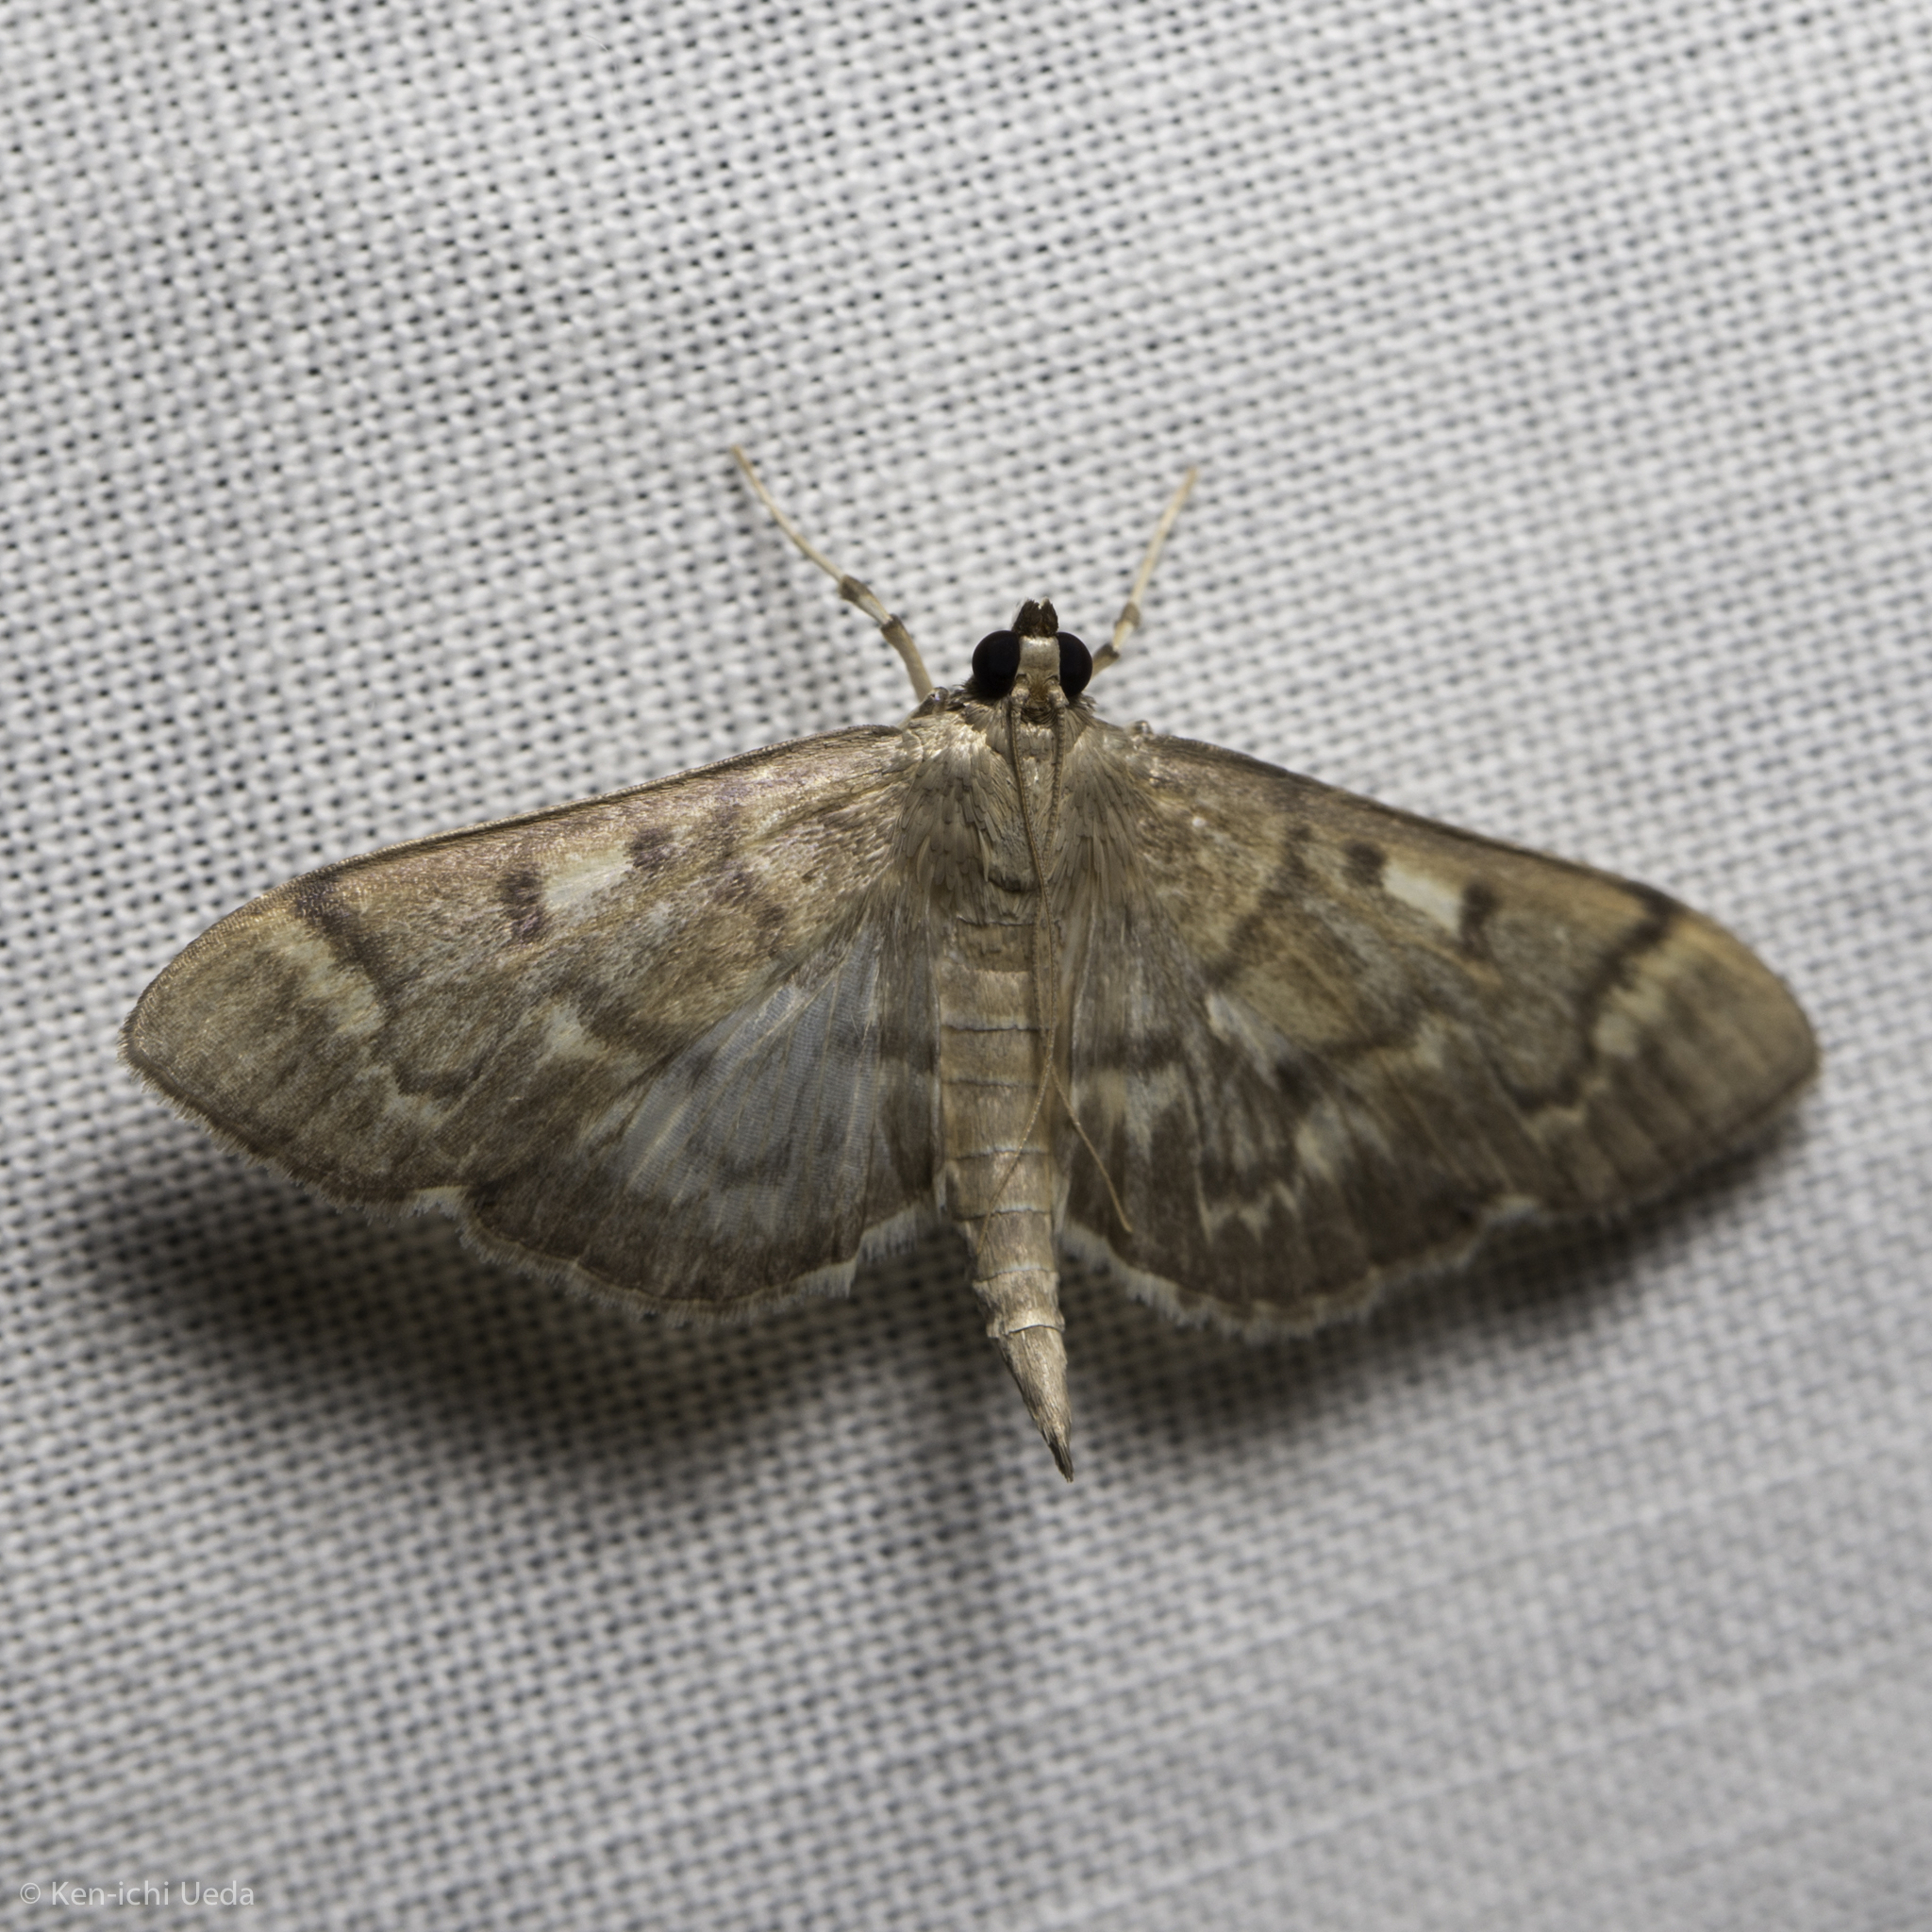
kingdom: Animalia
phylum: Arthropoda
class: Insecta
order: Lepidoptera
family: Crambidae
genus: Herpetogramma
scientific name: Herpetogramma aeglealis
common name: Serpentine webworm moth
